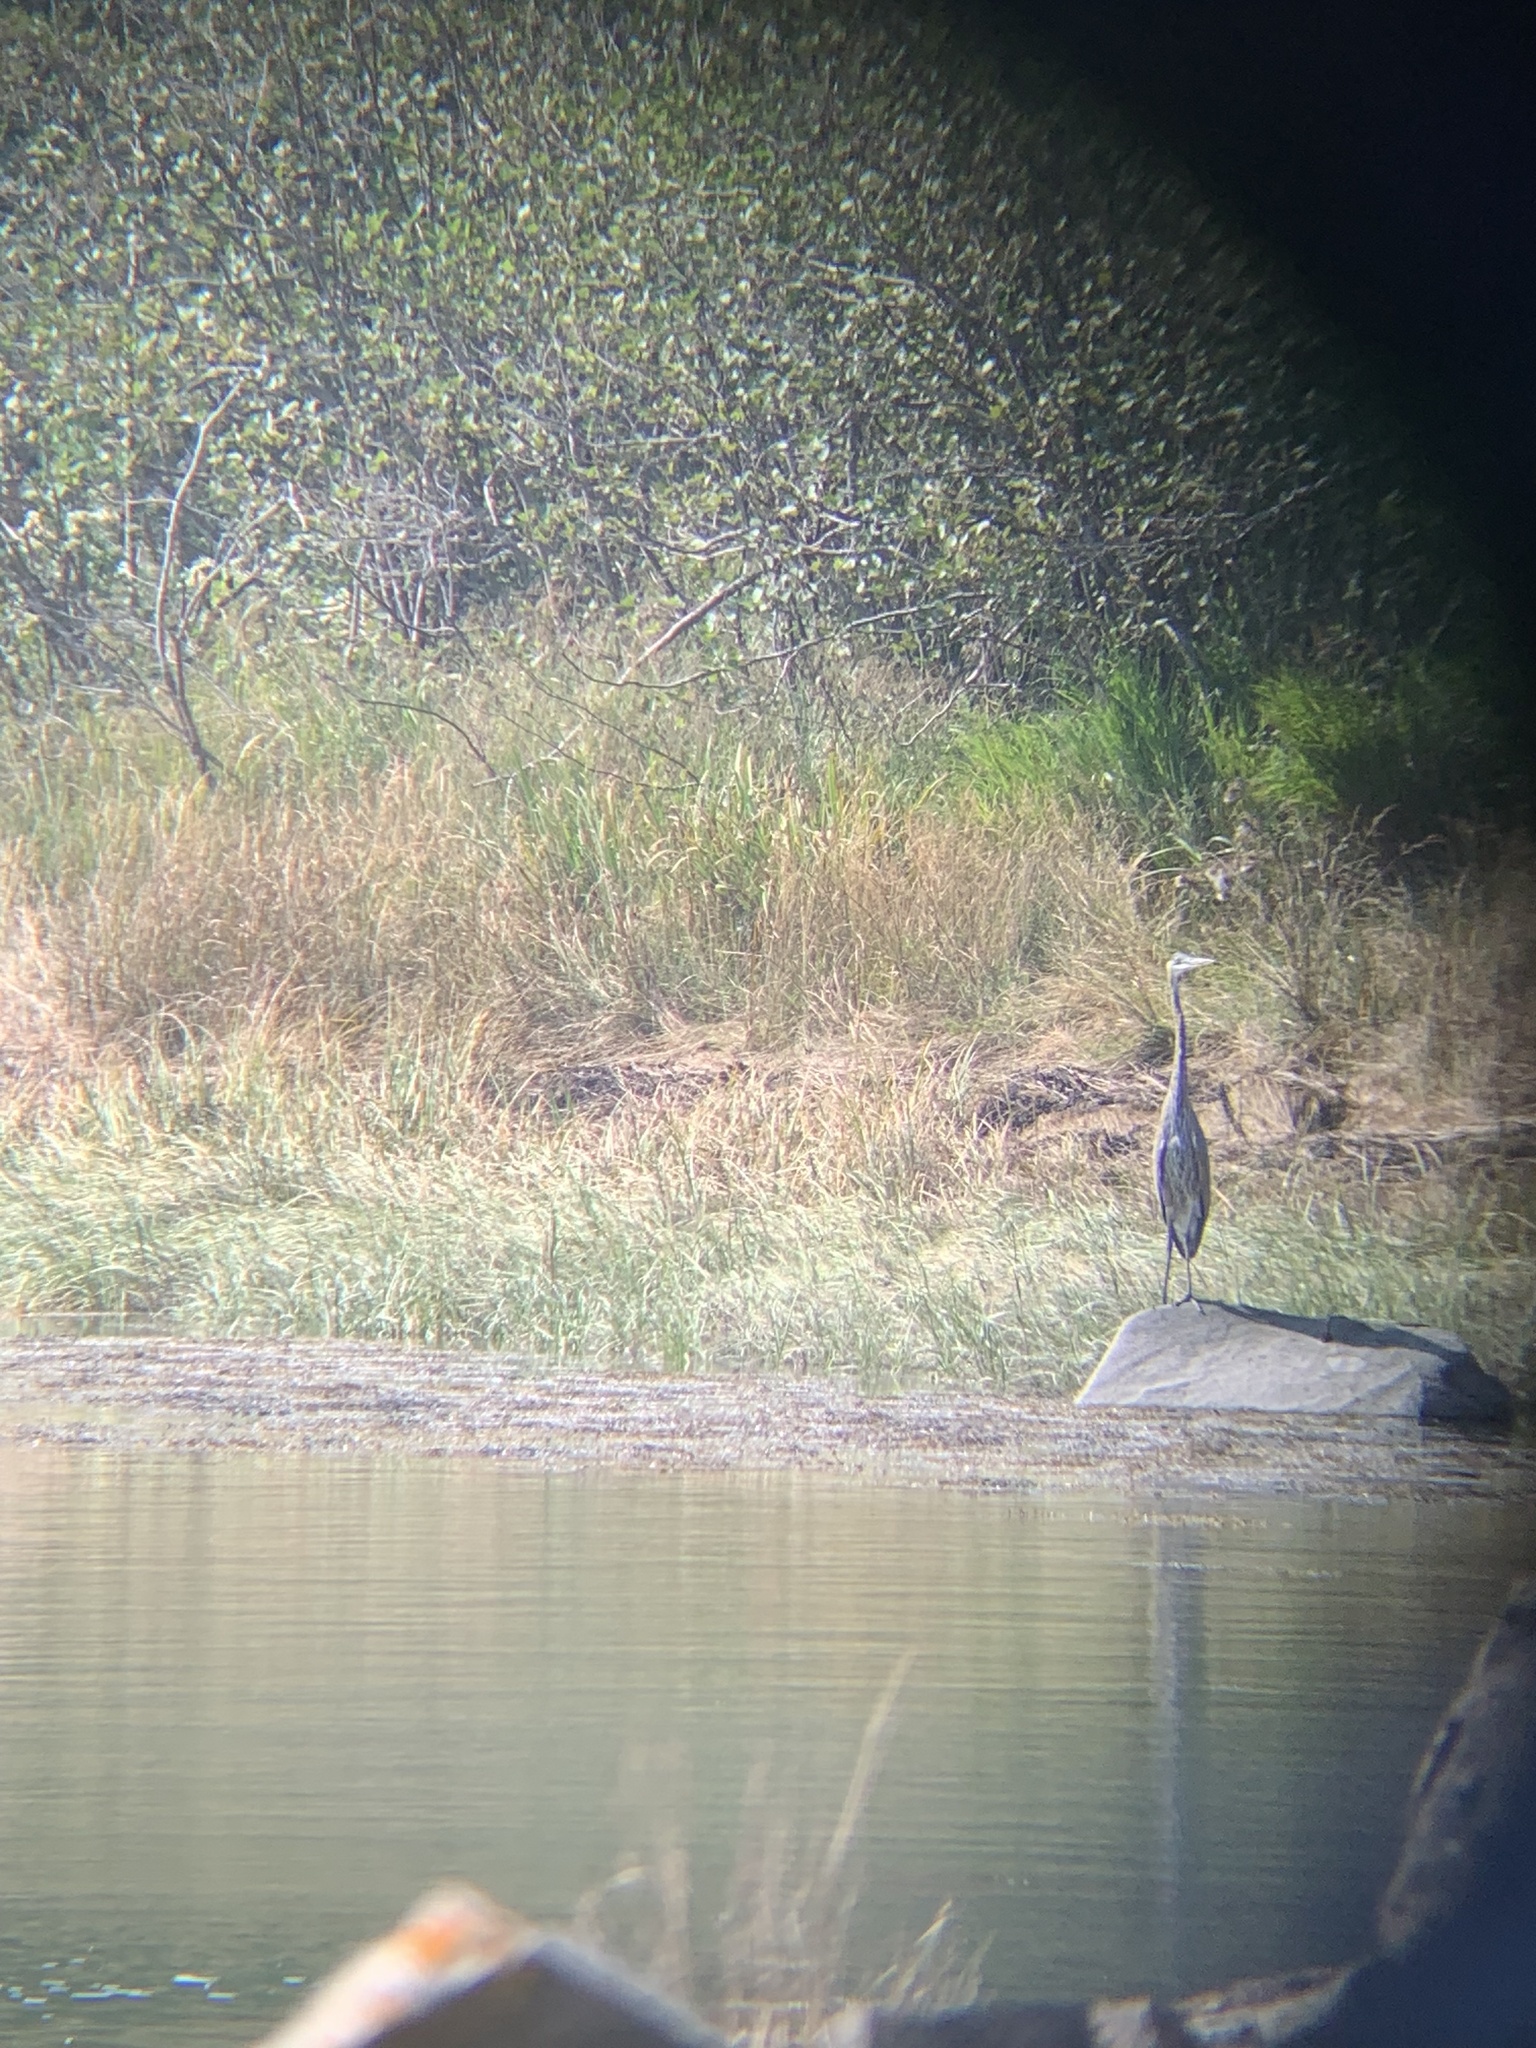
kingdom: Animalia
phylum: Chordata
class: Aves
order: Pelecaniformes
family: Ardeidae
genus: Ardea
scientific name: Ardea herodias
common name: Great blue heron
